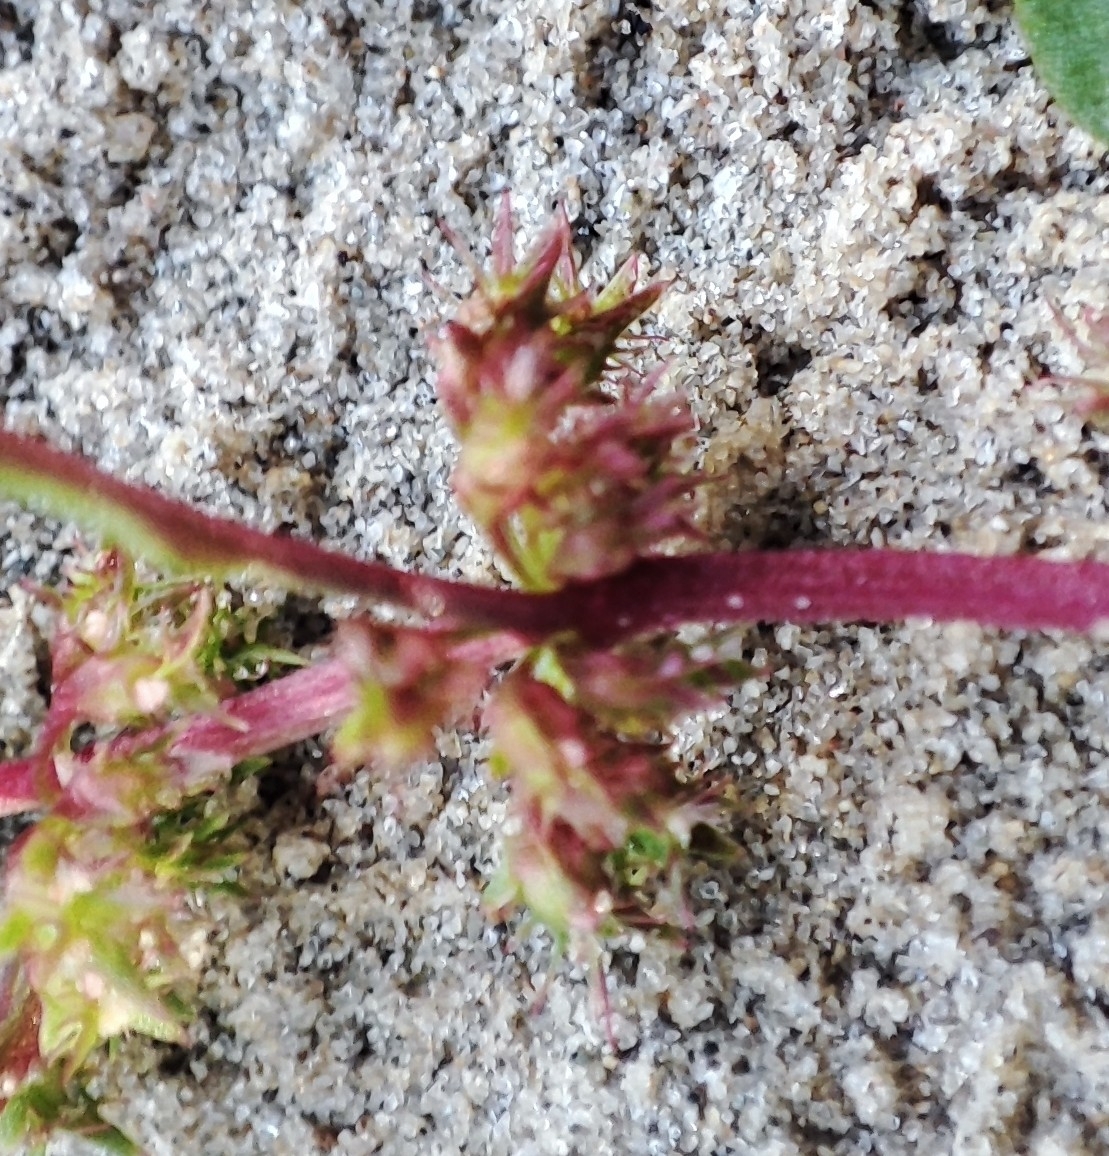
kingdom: Plantae
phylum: Tracheophyta
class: Magnoliopsida
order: Caryophyllales
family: Polygonaceae
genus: Rumex
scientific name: Rumex ucranicus
